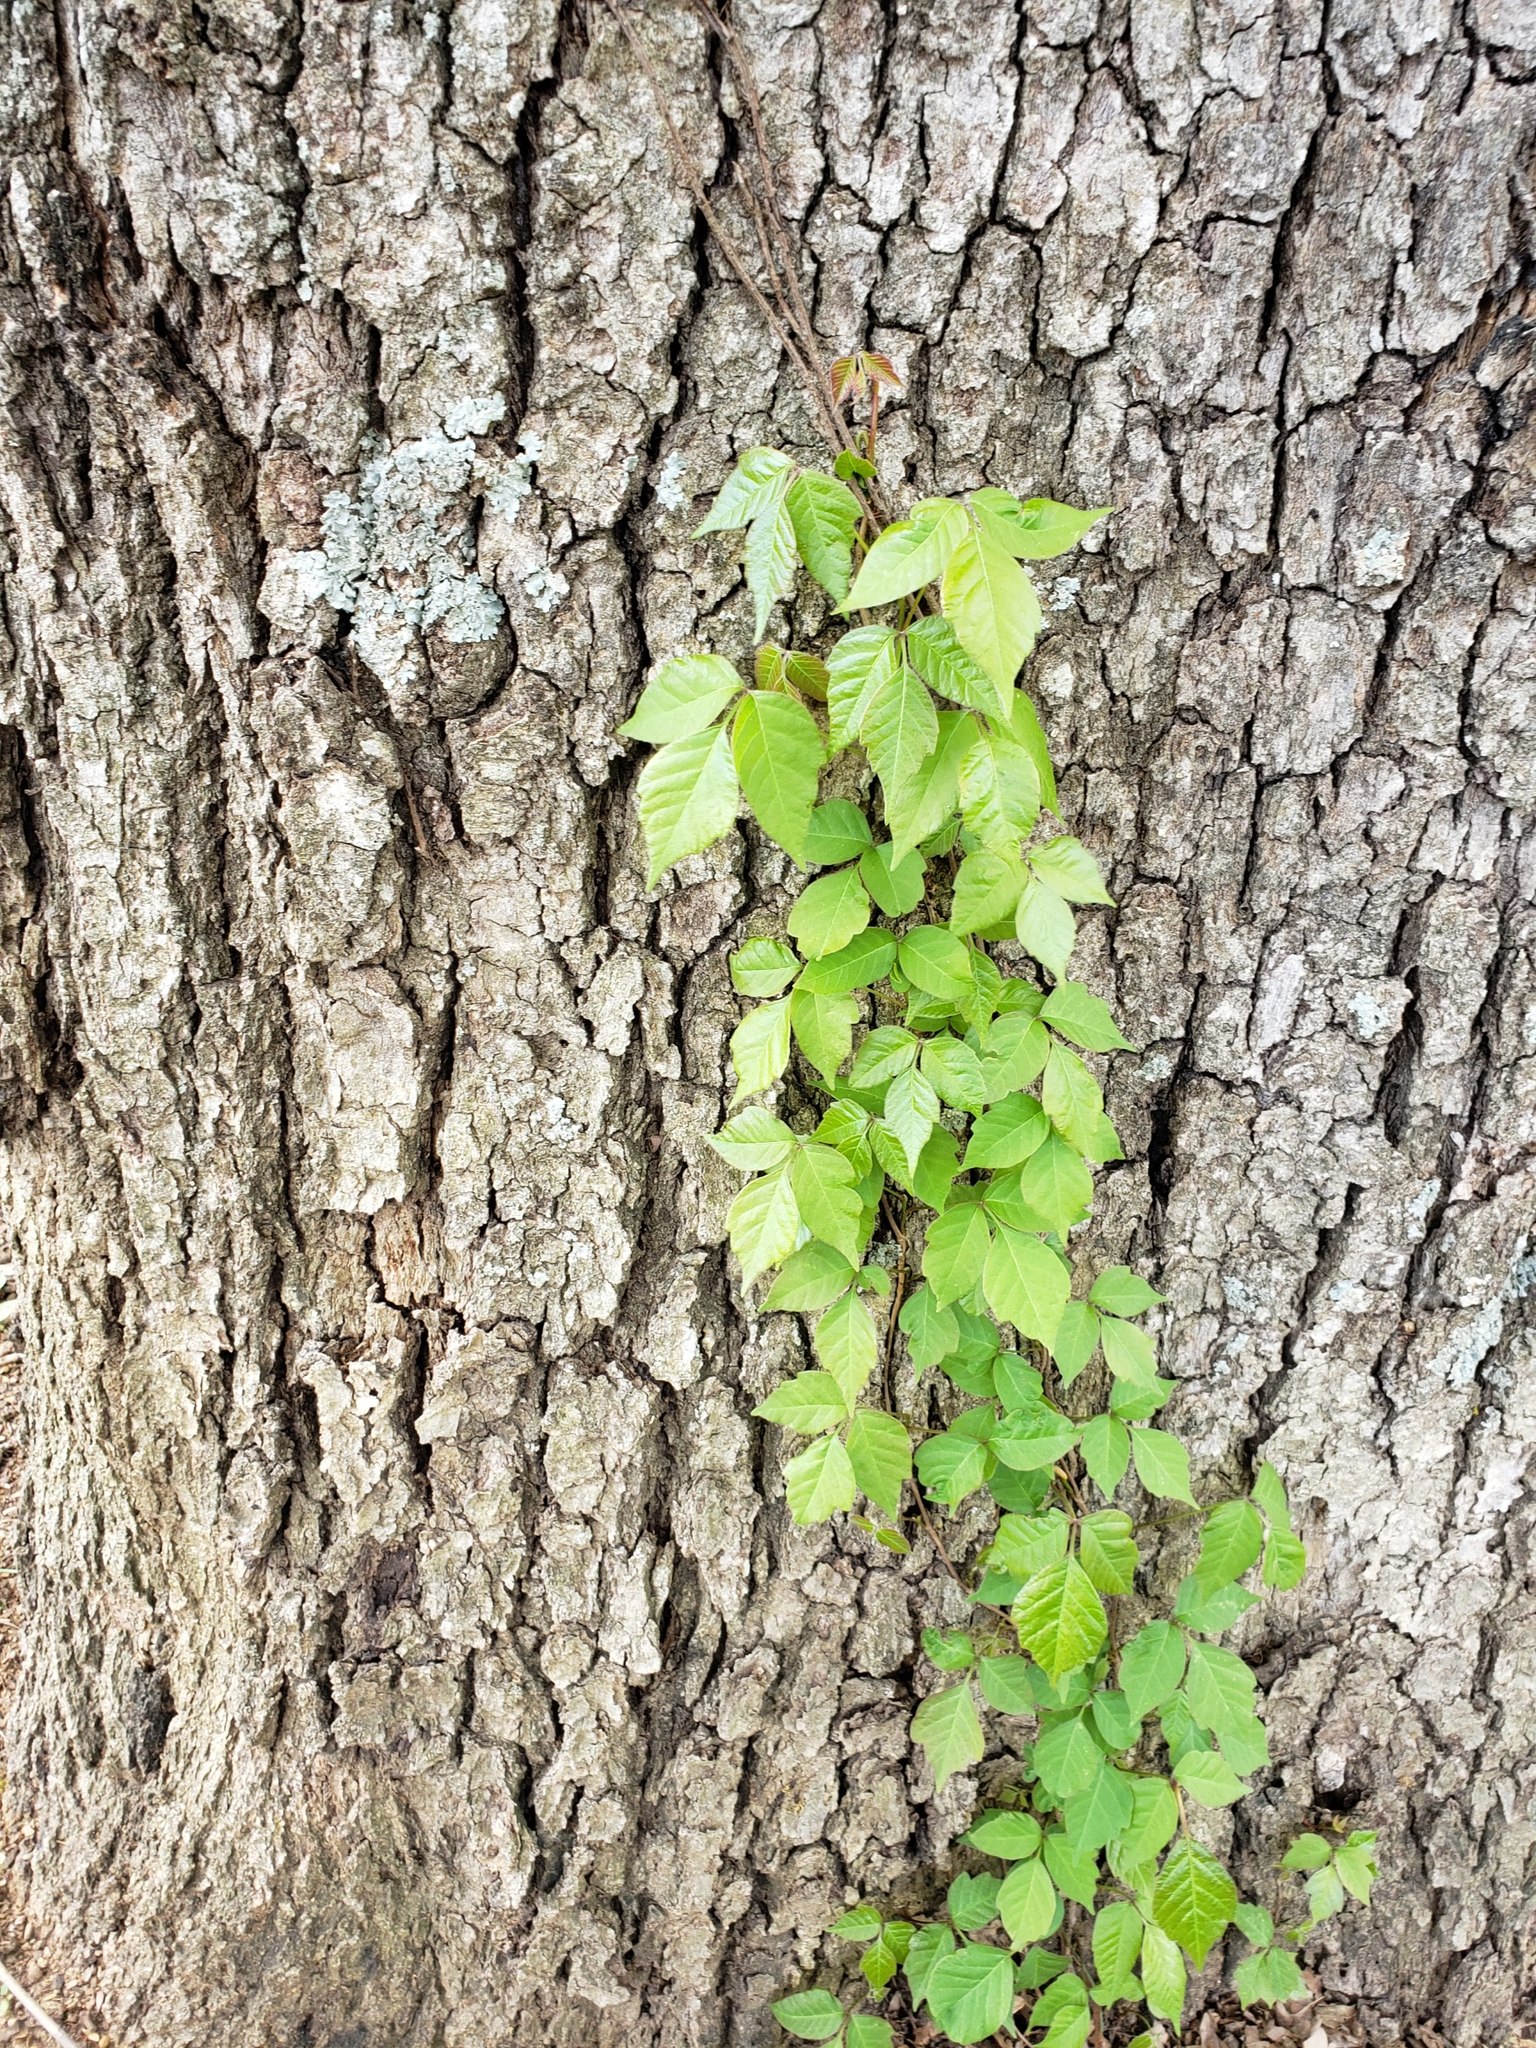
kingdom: Plantae
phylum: Tracheophyta
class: Magnoliopsida
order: Sapindales
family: Anacardiaceae
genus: Toxicodendron
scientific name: Toxicodendron radicans
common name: Poison ivy
